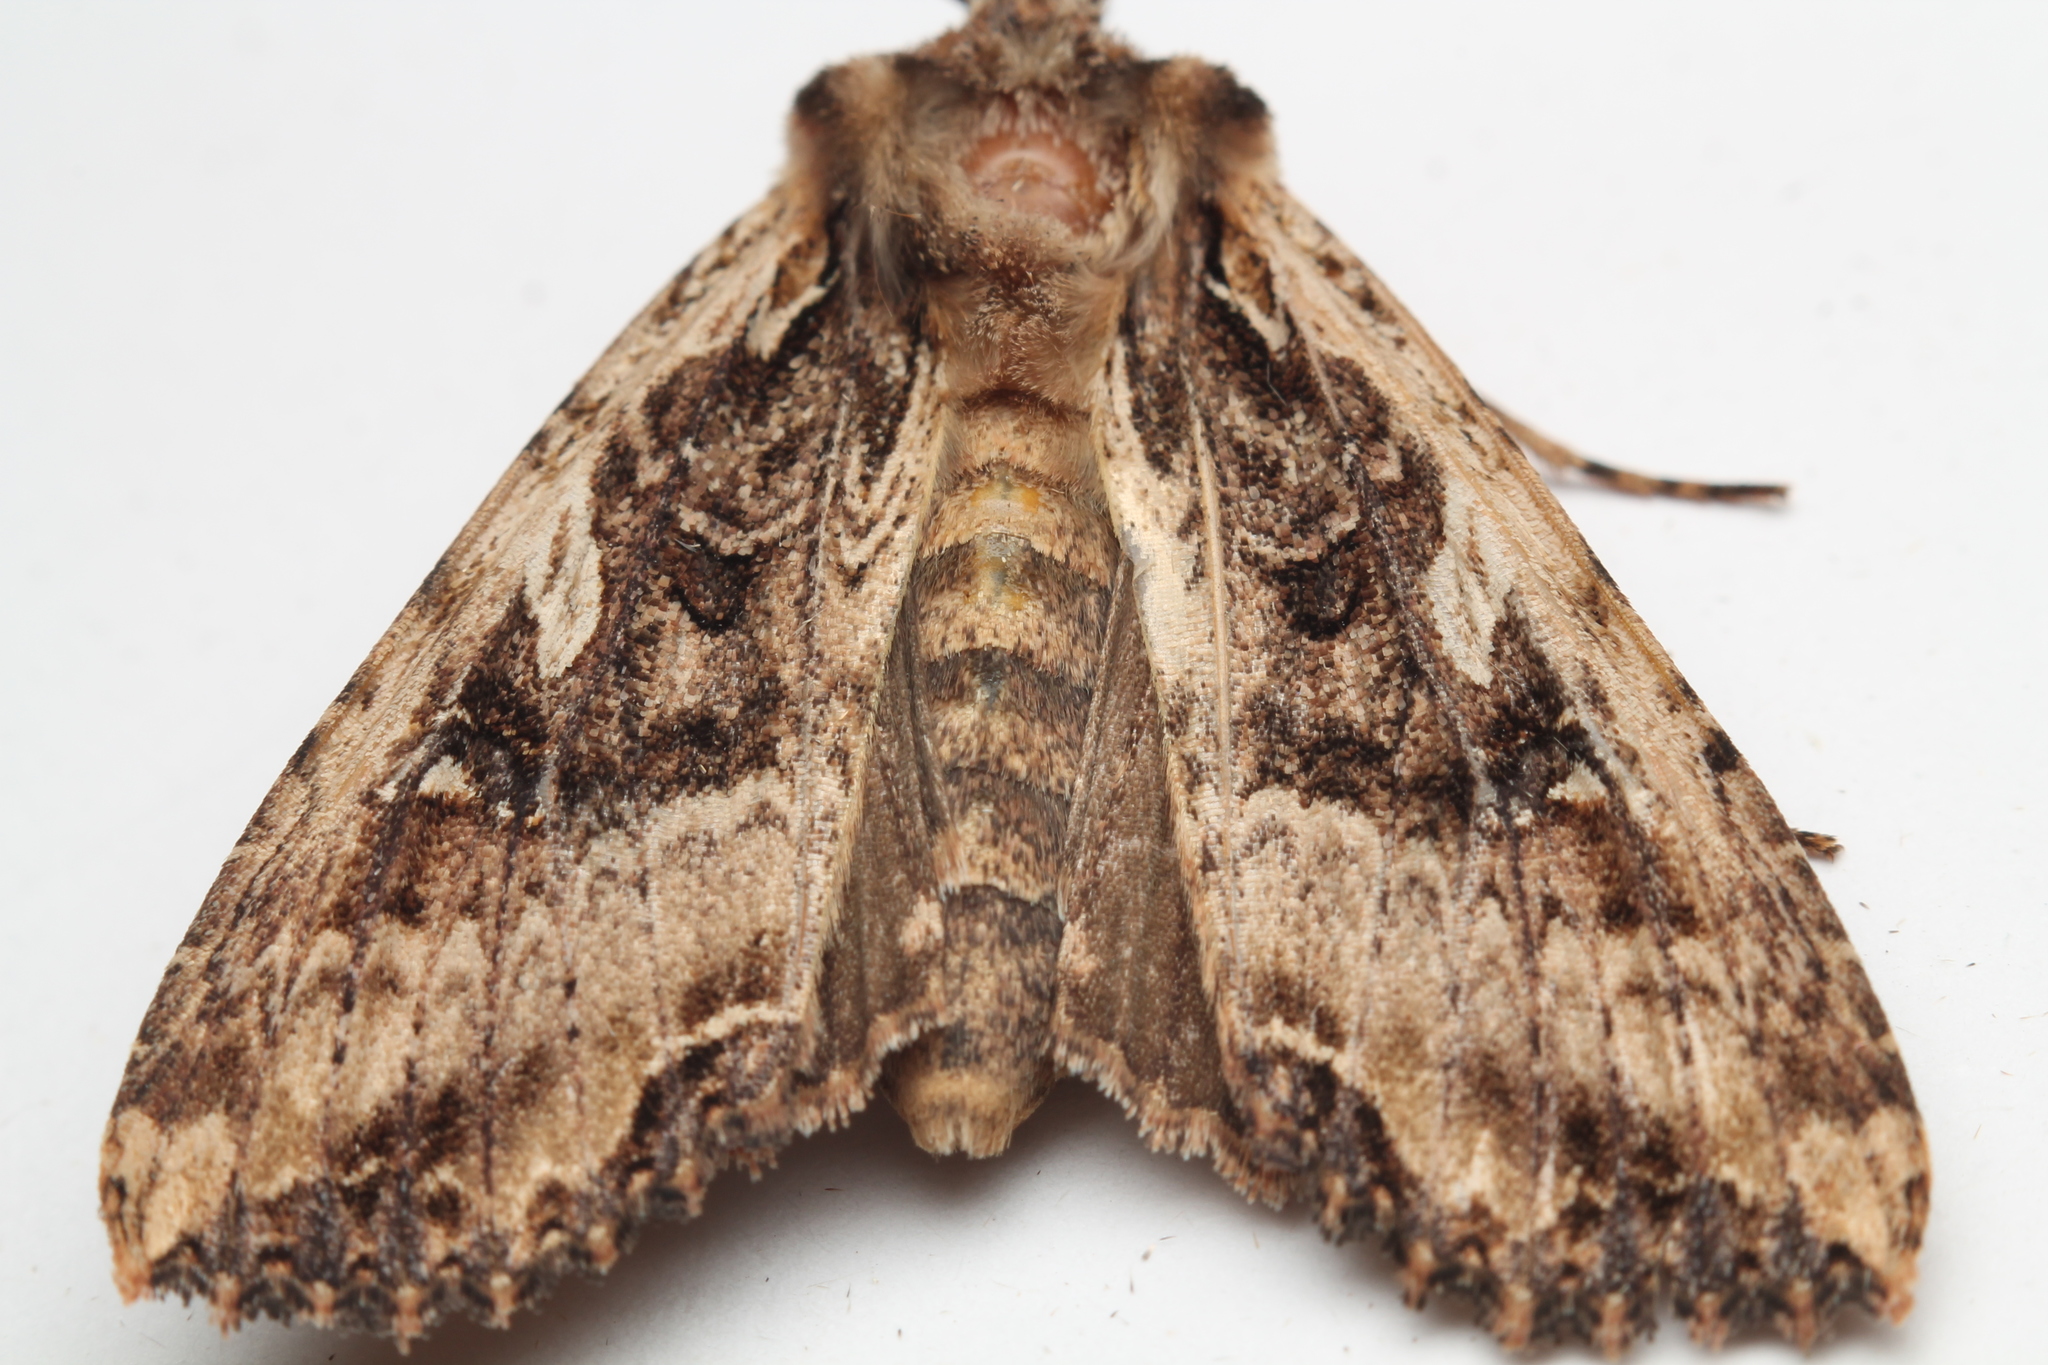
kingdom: Animalia
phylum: Arthropoda
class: Insecta
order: Lepidoptera
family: Noctuidae
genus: Meterana
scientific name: Meterana stipata
